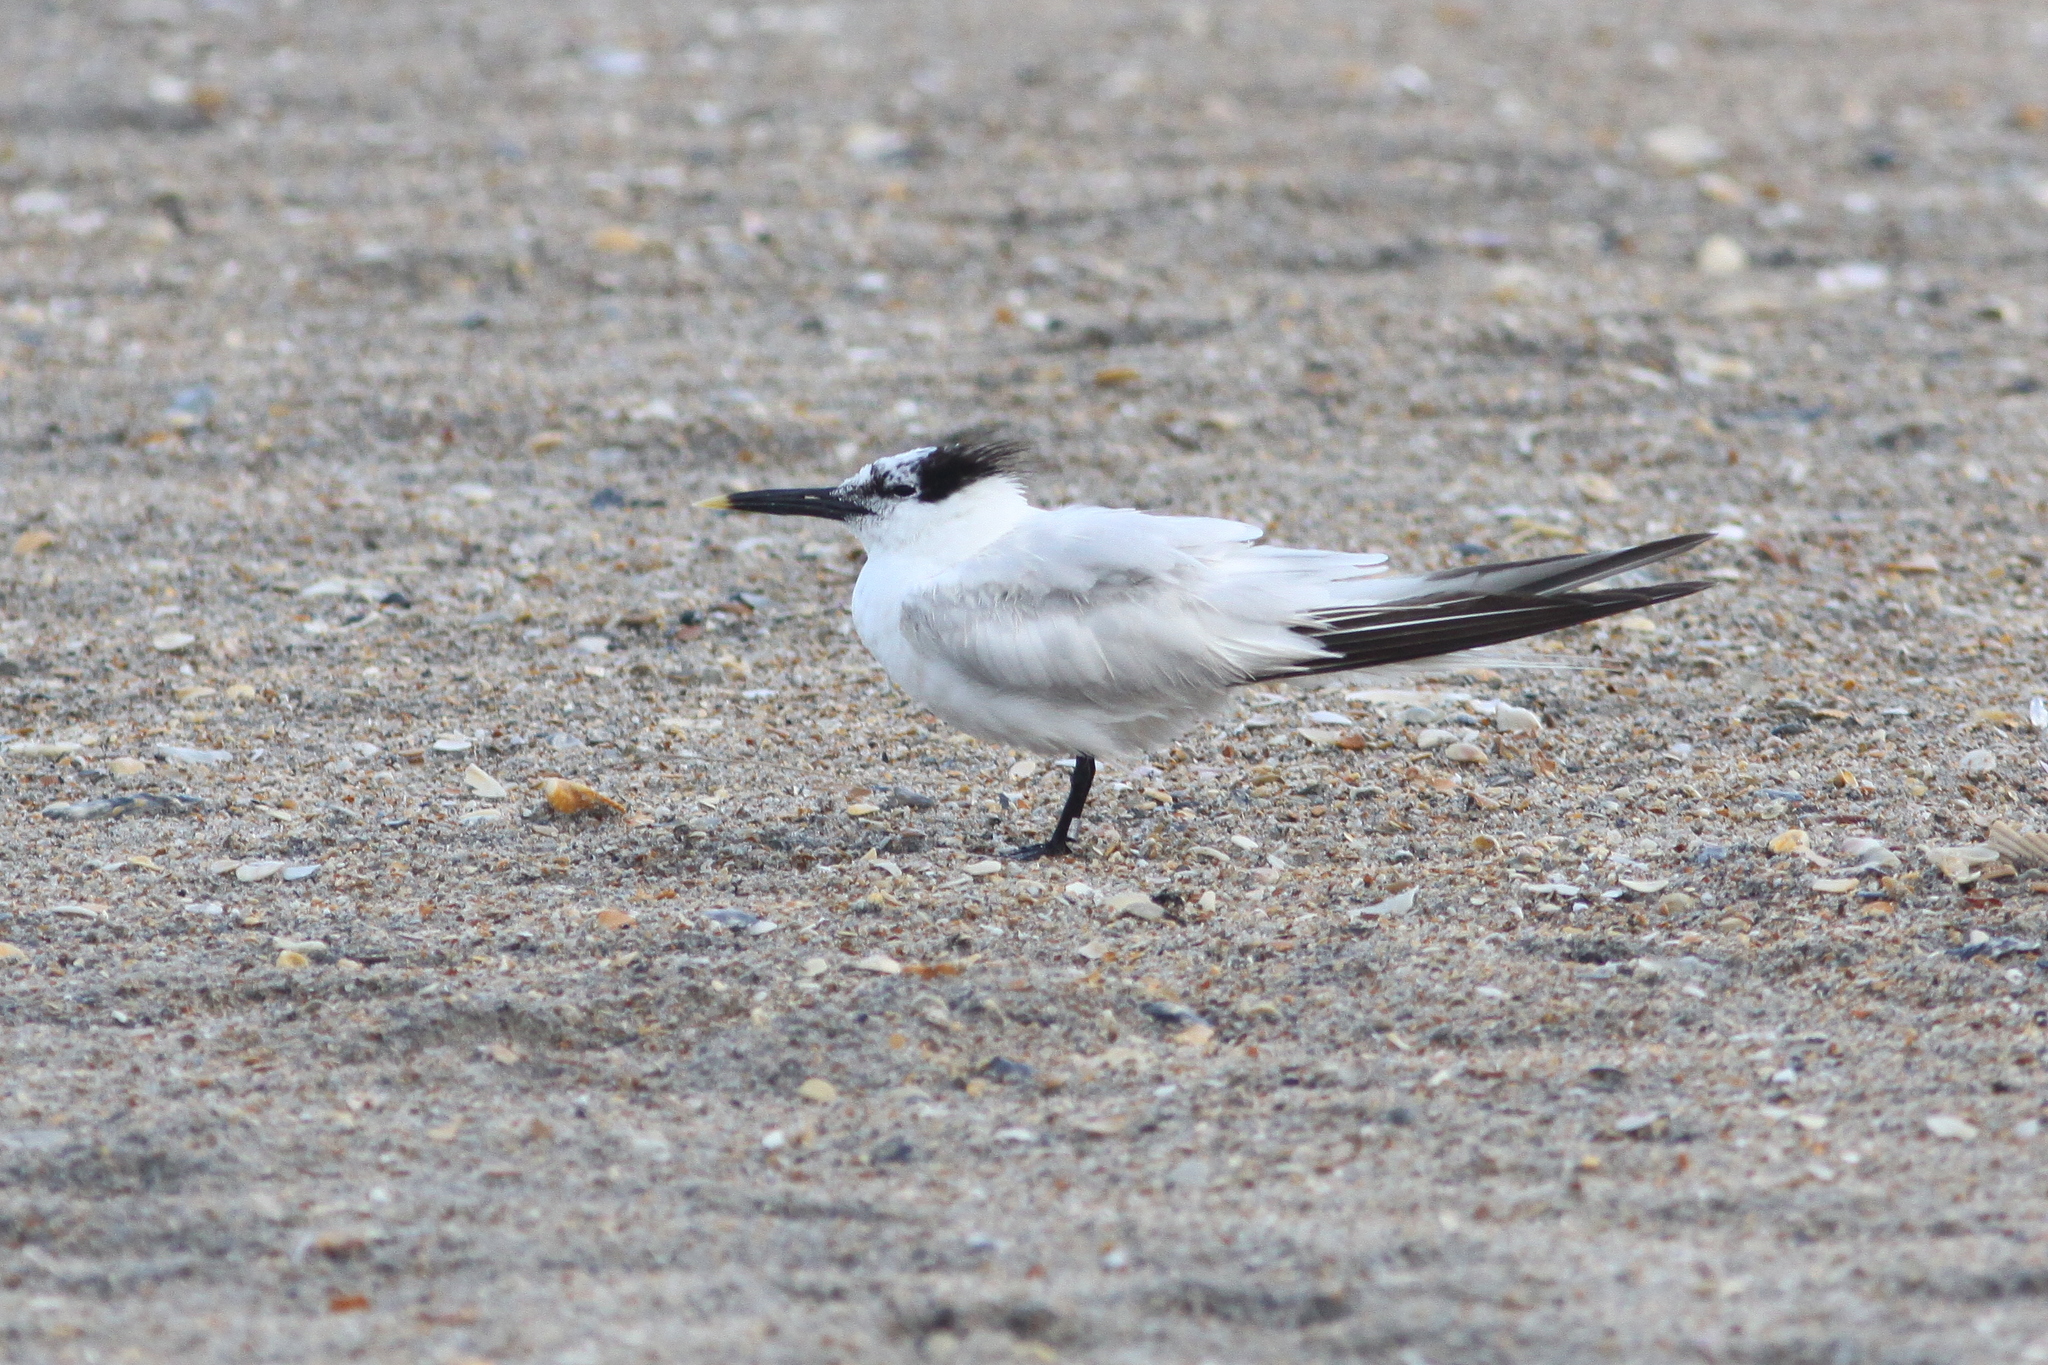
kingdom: Animalia
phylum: Chordata
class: Aves
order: Charadriiformes
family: Laridae
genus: Thalasseus
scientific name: Thalasseus sandvicensis
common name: Sandwich tern
